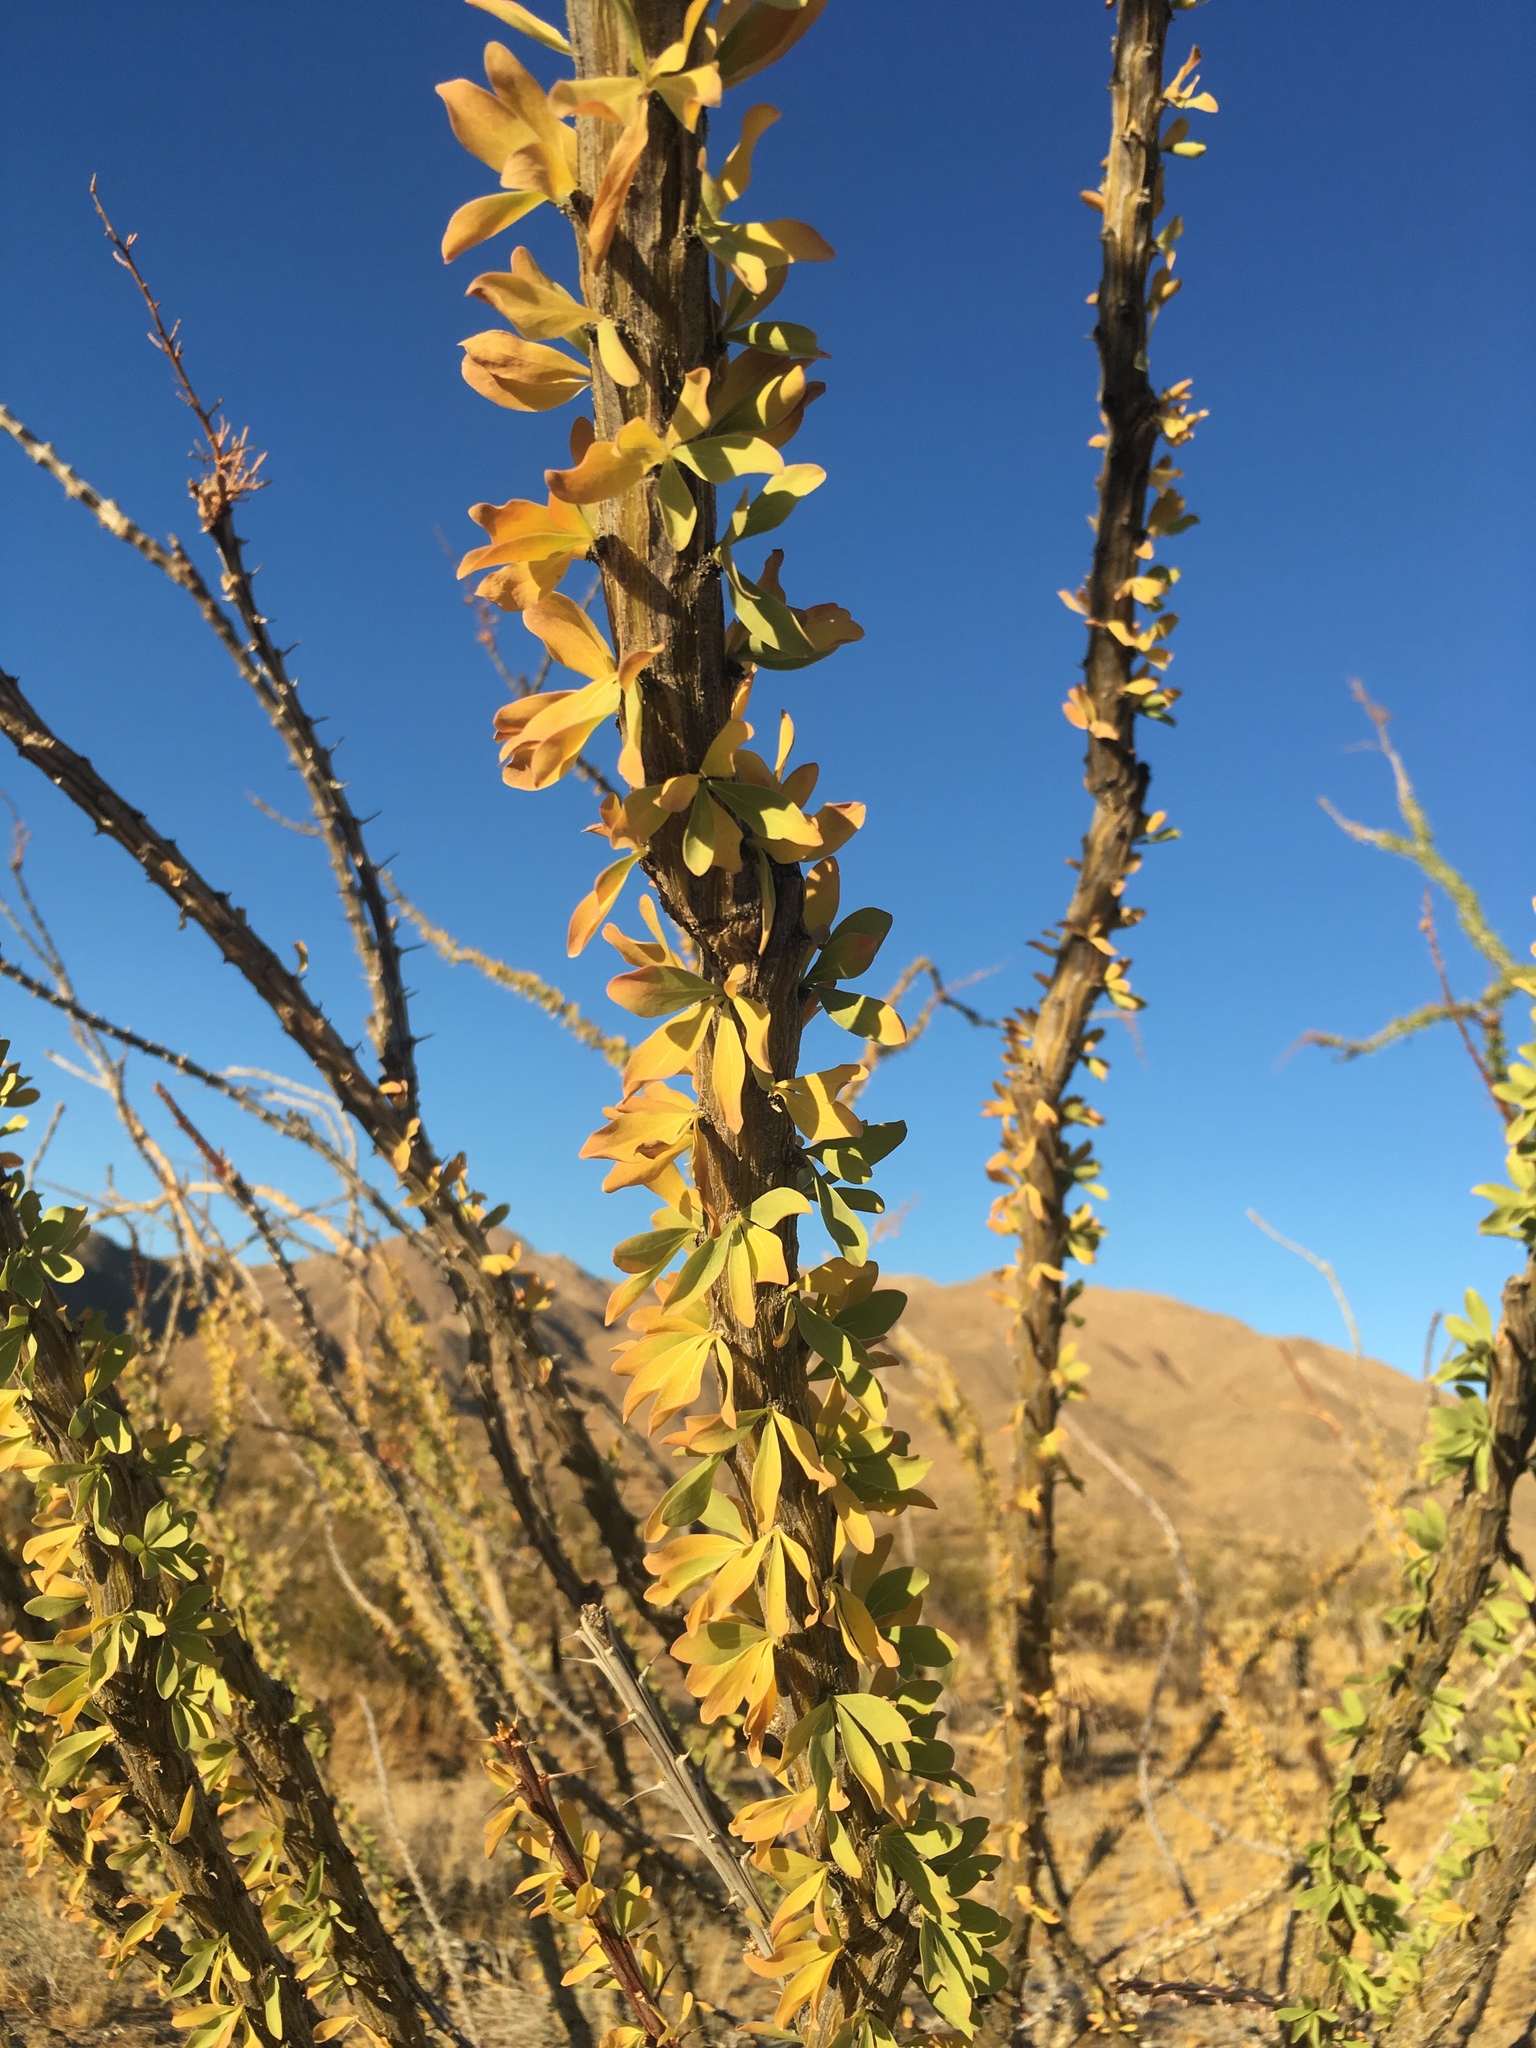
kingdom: Plantae
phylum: Tracheophyta
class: Magnoliopsida
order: Ericales
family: Fouquieriaceae
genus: Fouquieria
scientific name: Fouquieria splendens
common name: Vine-cactus
